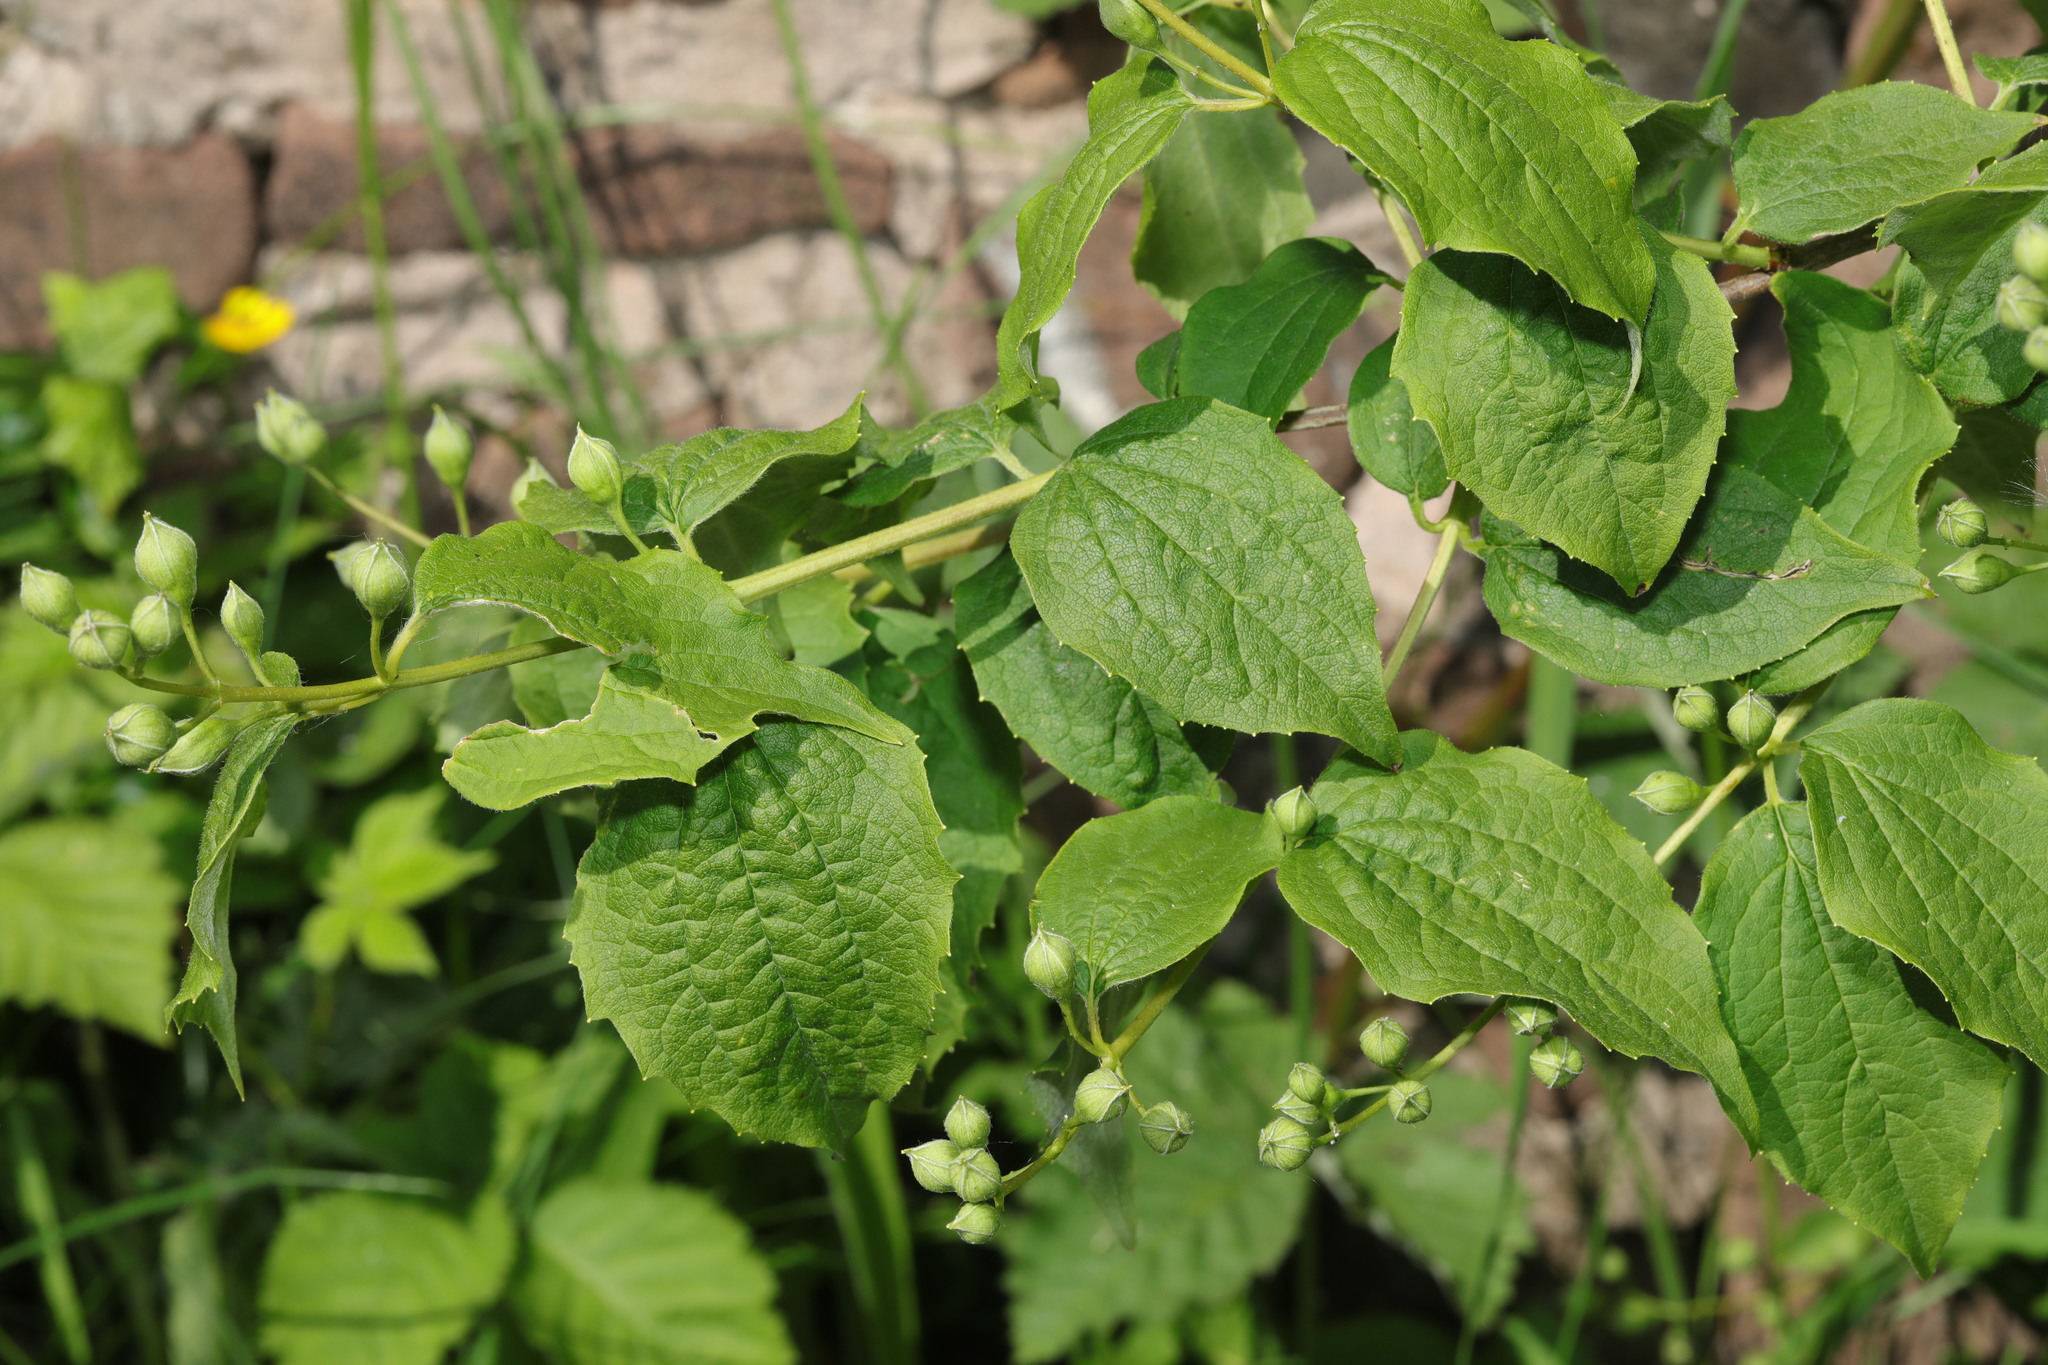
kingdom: Plantae
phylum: Tracheophyta
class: Magnoliopsida
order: Cornales
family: Hydrangeaceae
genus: Philadelphus
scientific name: Philadelphus coronarius
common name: Mock orange
